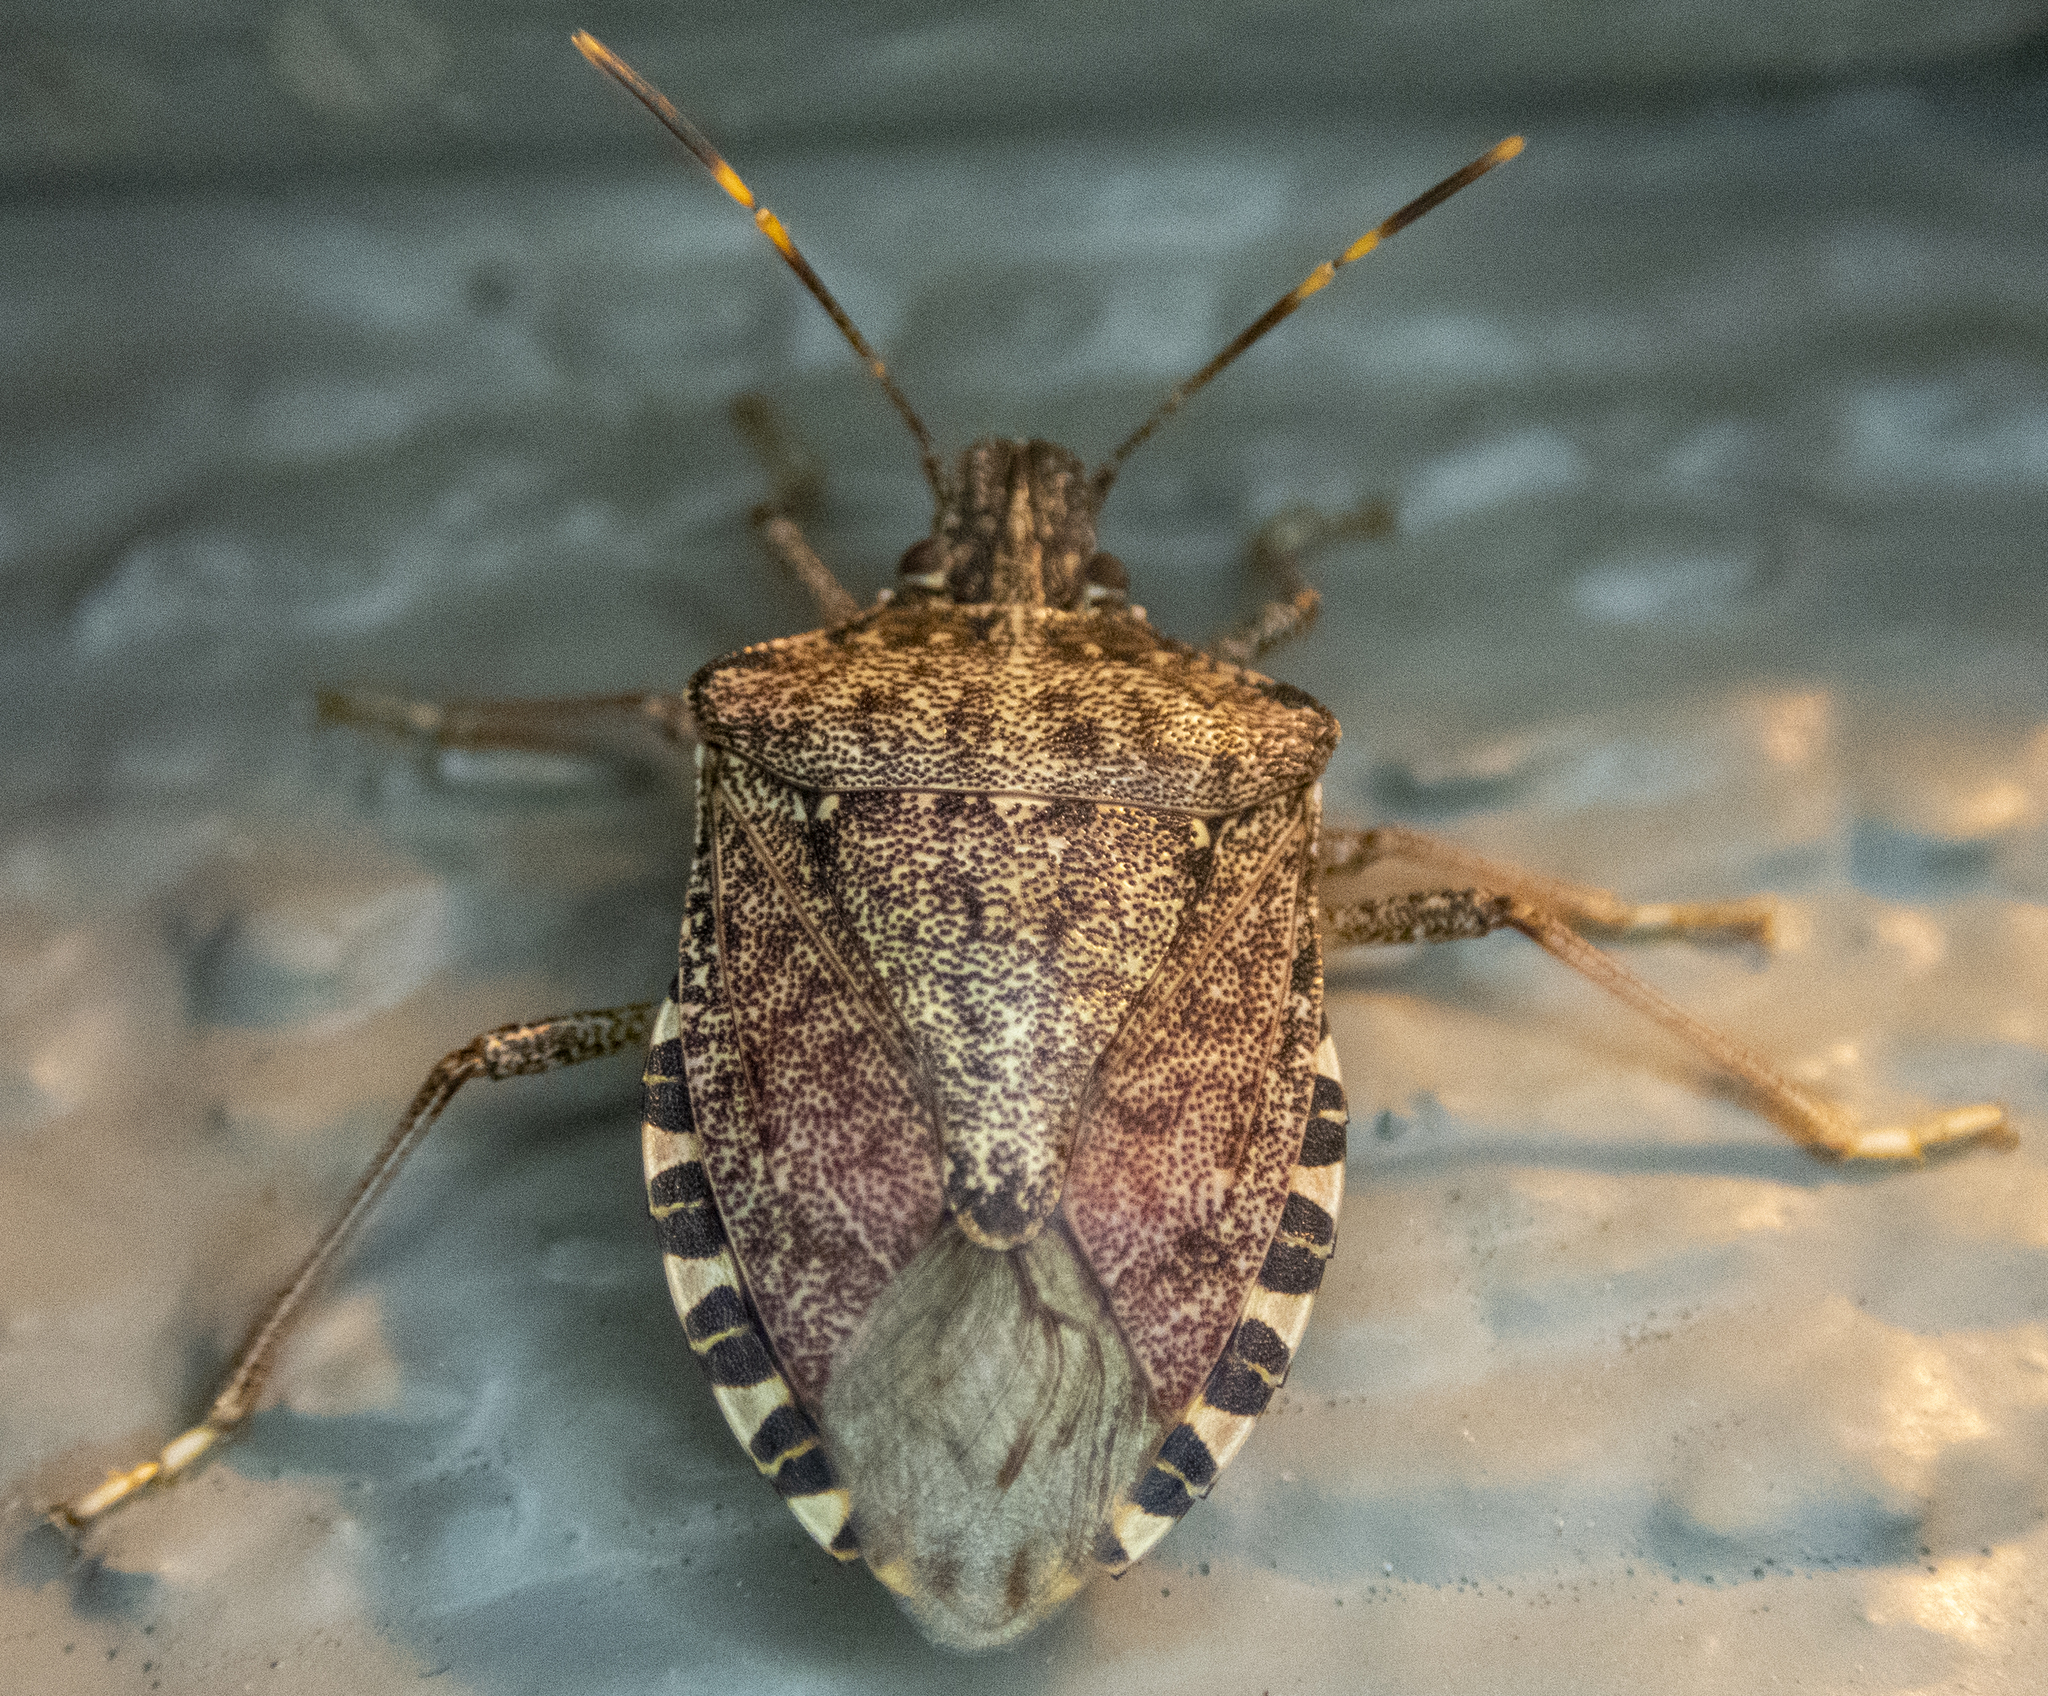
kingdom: Animalia
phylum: Arthropoda
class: Insecta
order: Hemiptera
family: Pentatomidae
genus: Halyomorpha
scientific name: Halyomorpha halys
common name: Brown marmorated stink bug
